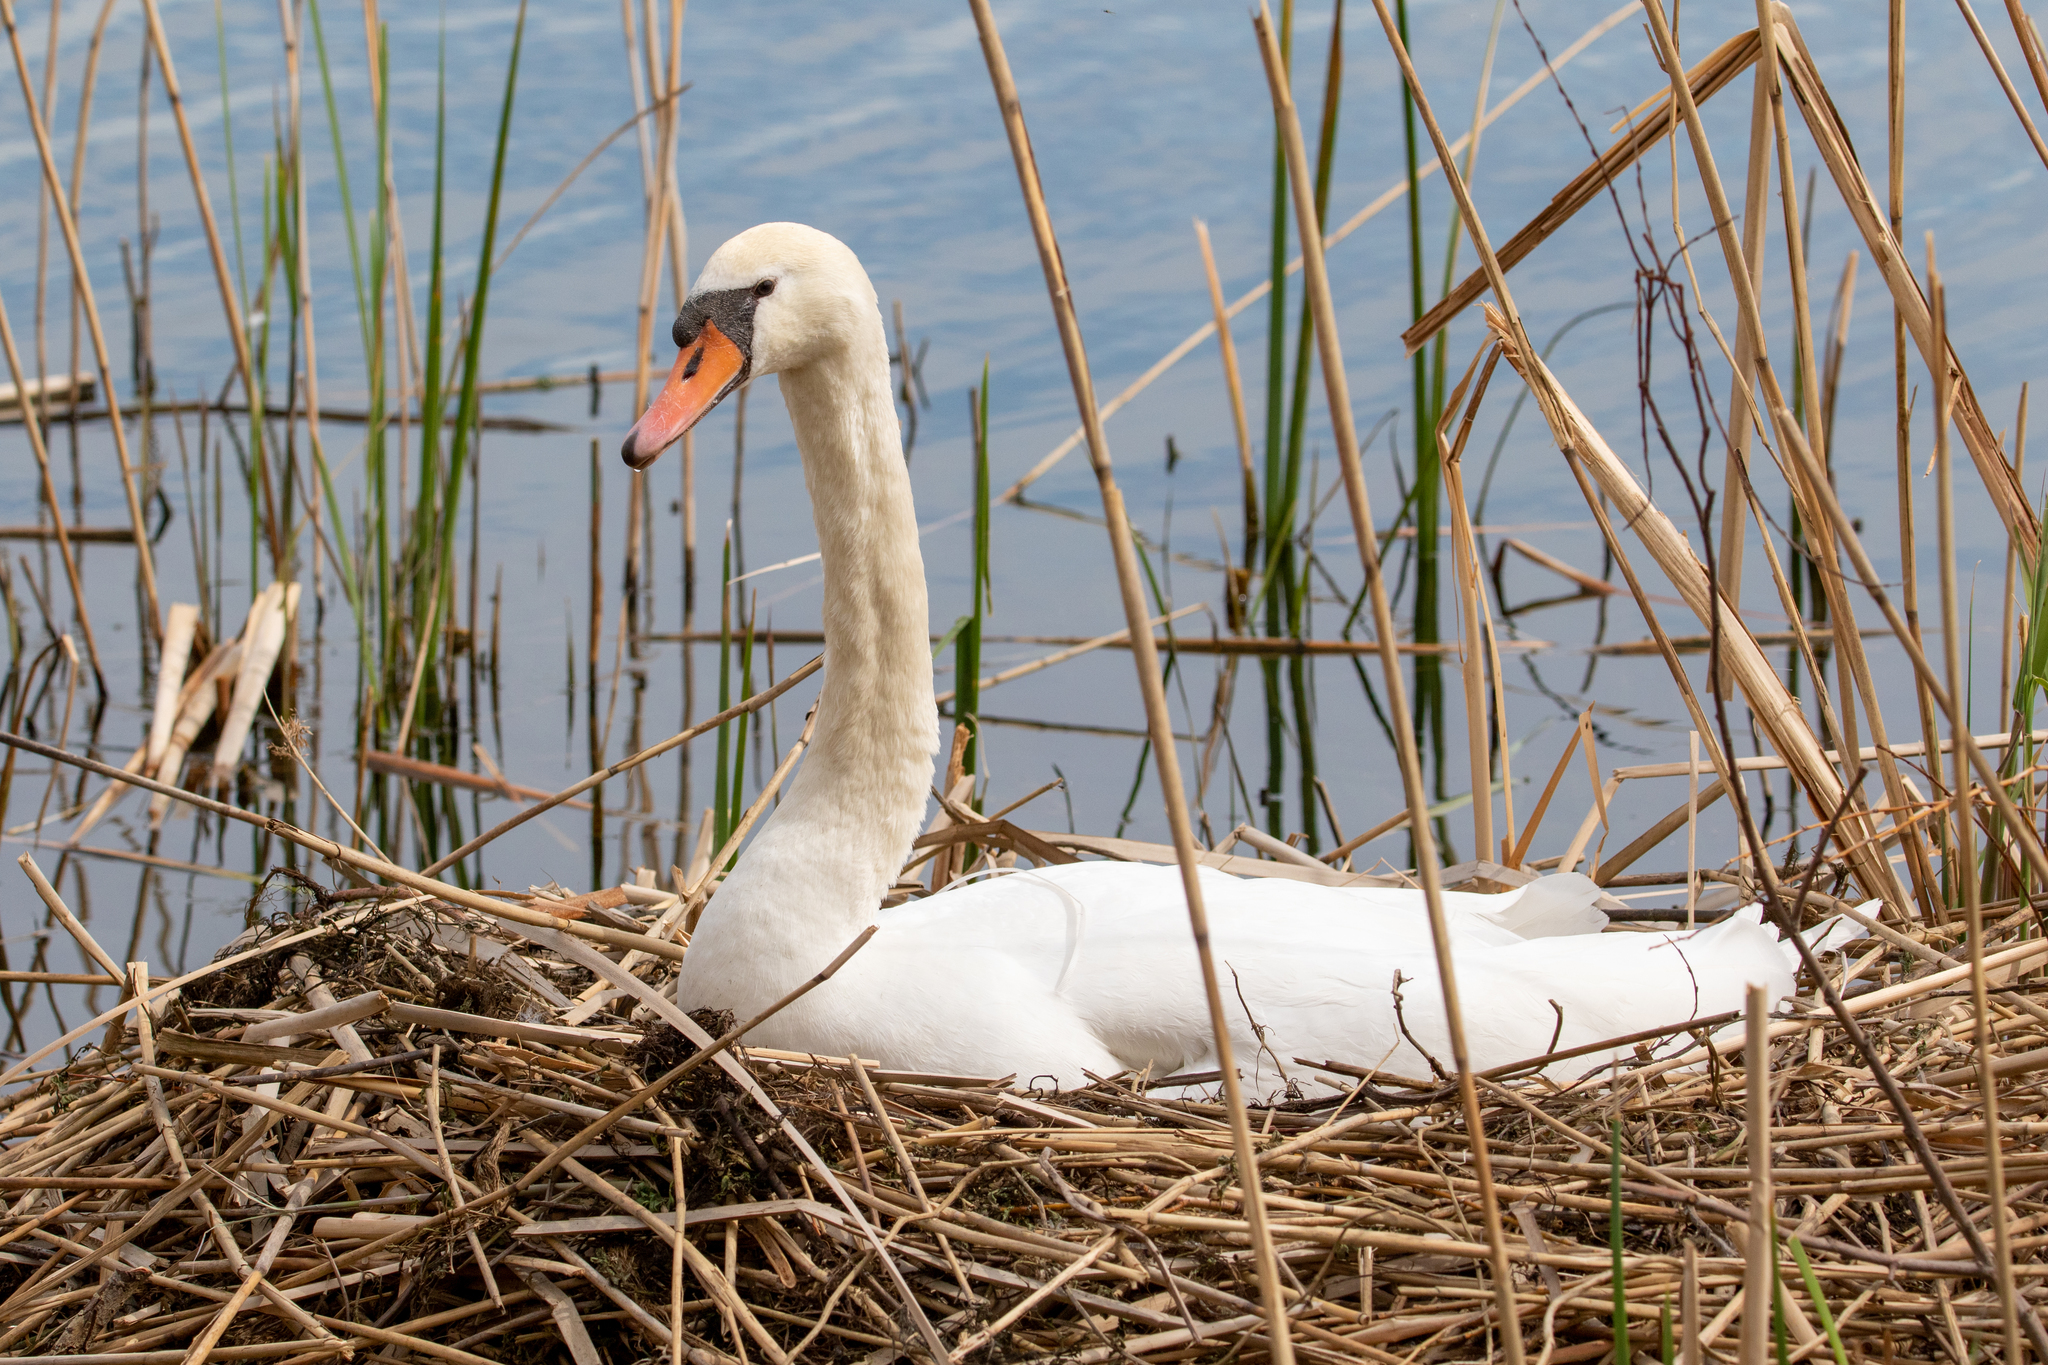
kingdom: Animalia
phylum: Chordata
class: Aves
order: Anseriformes
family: Anatidae
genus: Cygnus
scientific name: Cygnus olor
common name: Mute swan
